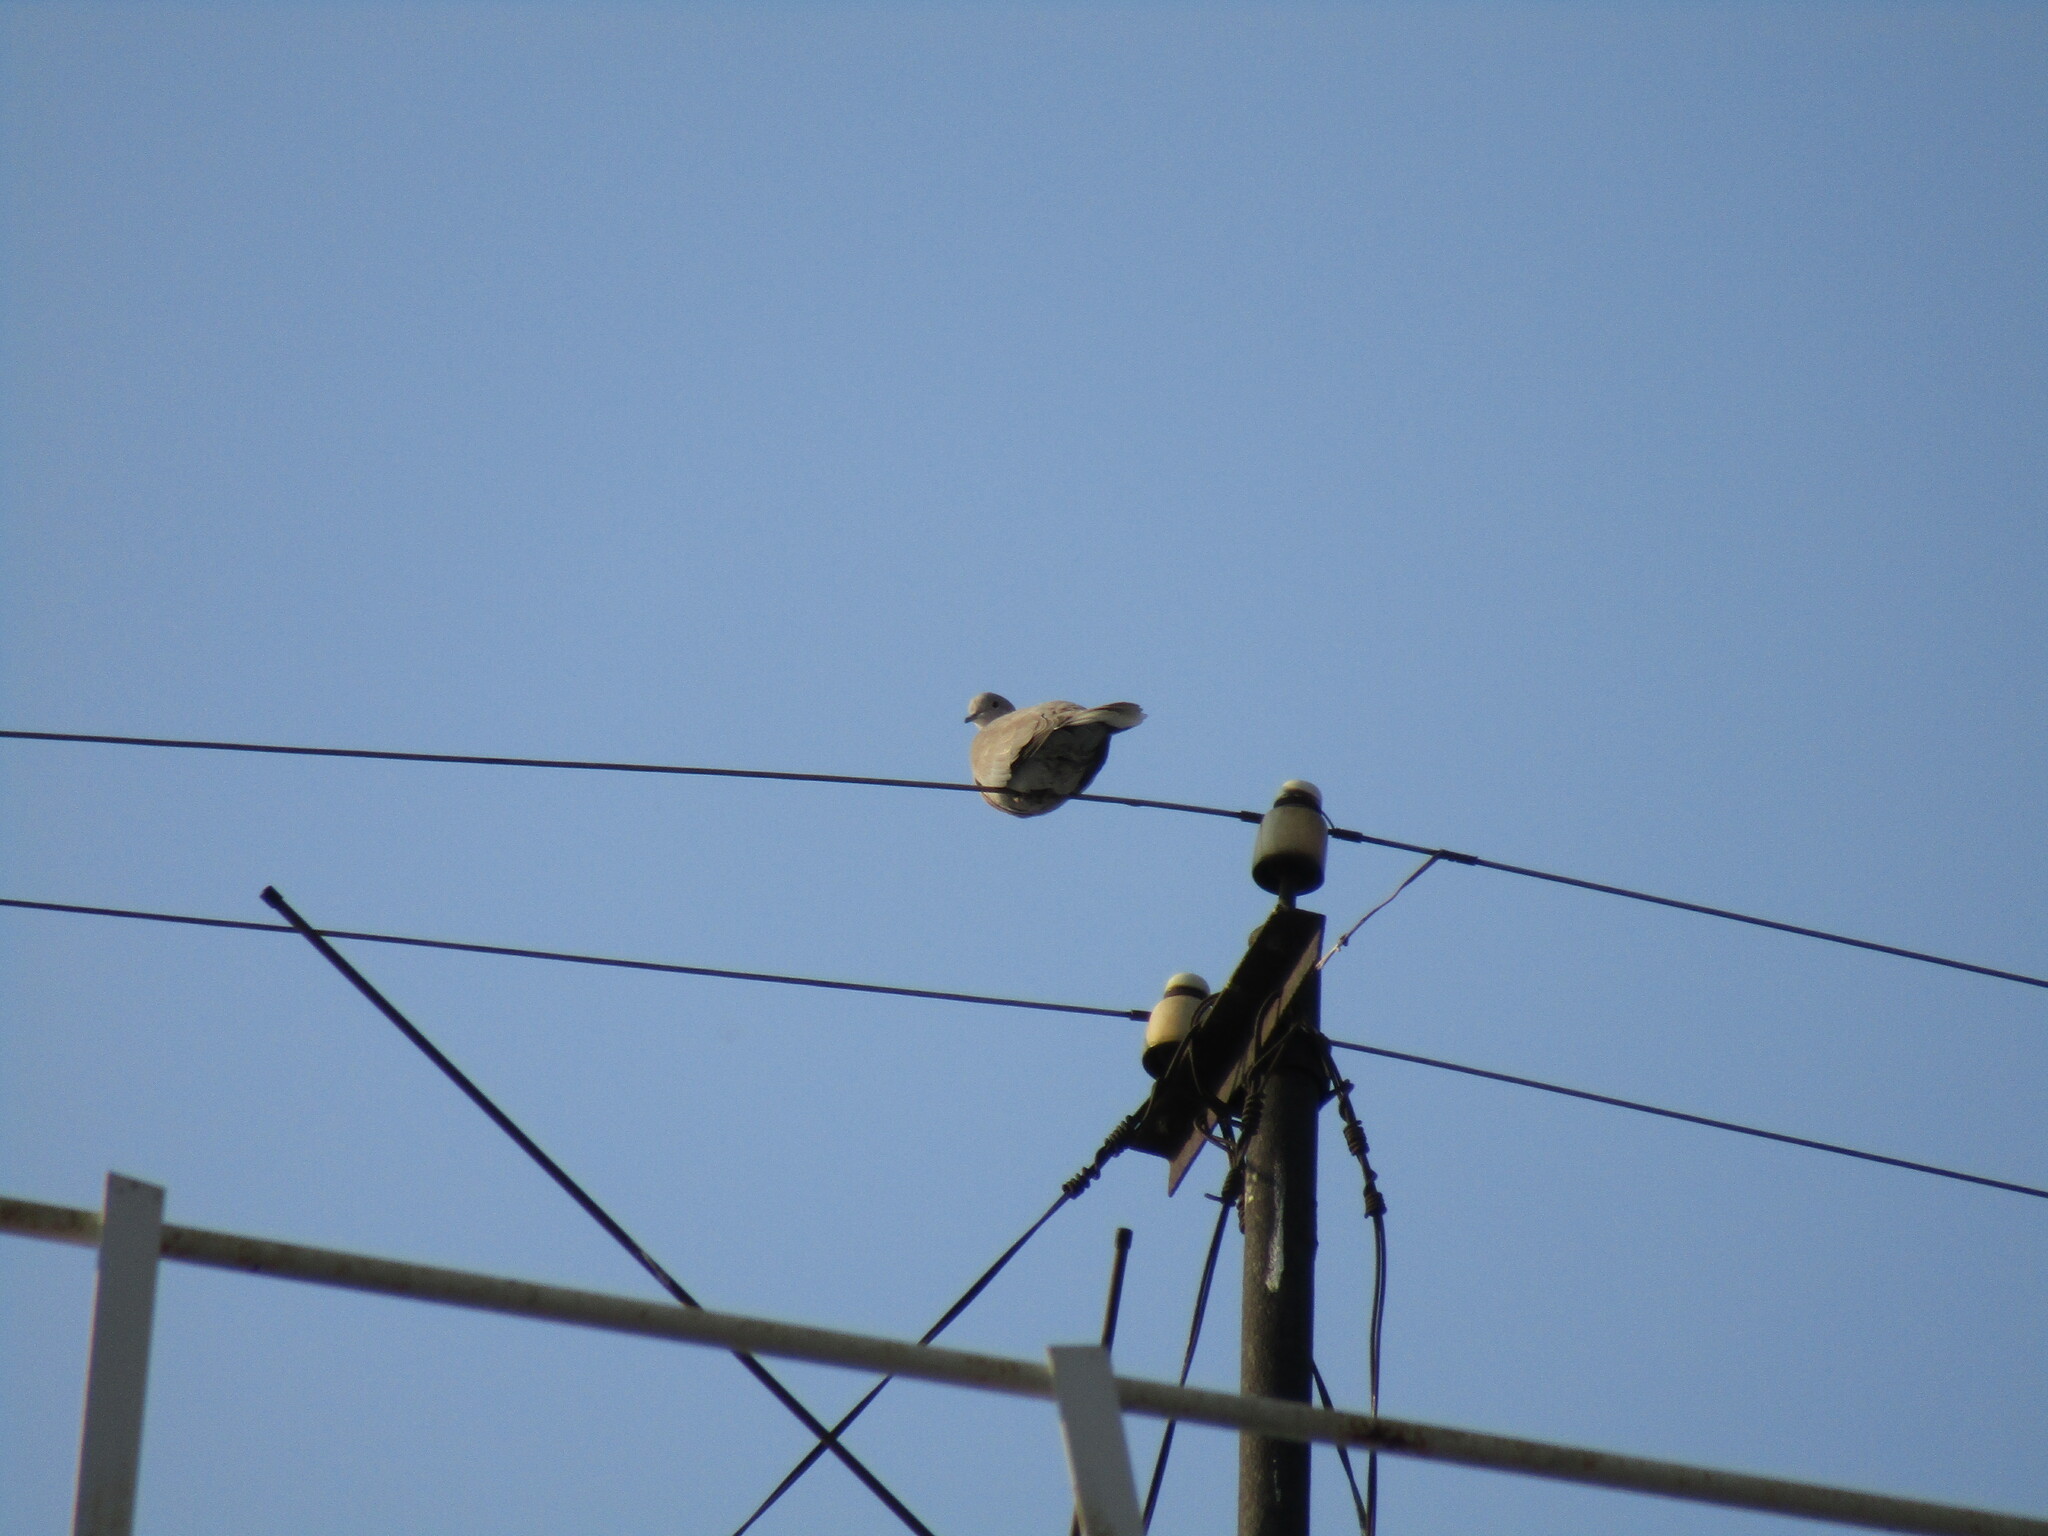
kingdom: Animalia
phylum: Chordata
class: Aves
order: Columbiformes
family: Columbidae
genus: Streptopelia
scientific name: Streptopelia decaocto
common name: Eurasian collared dove
